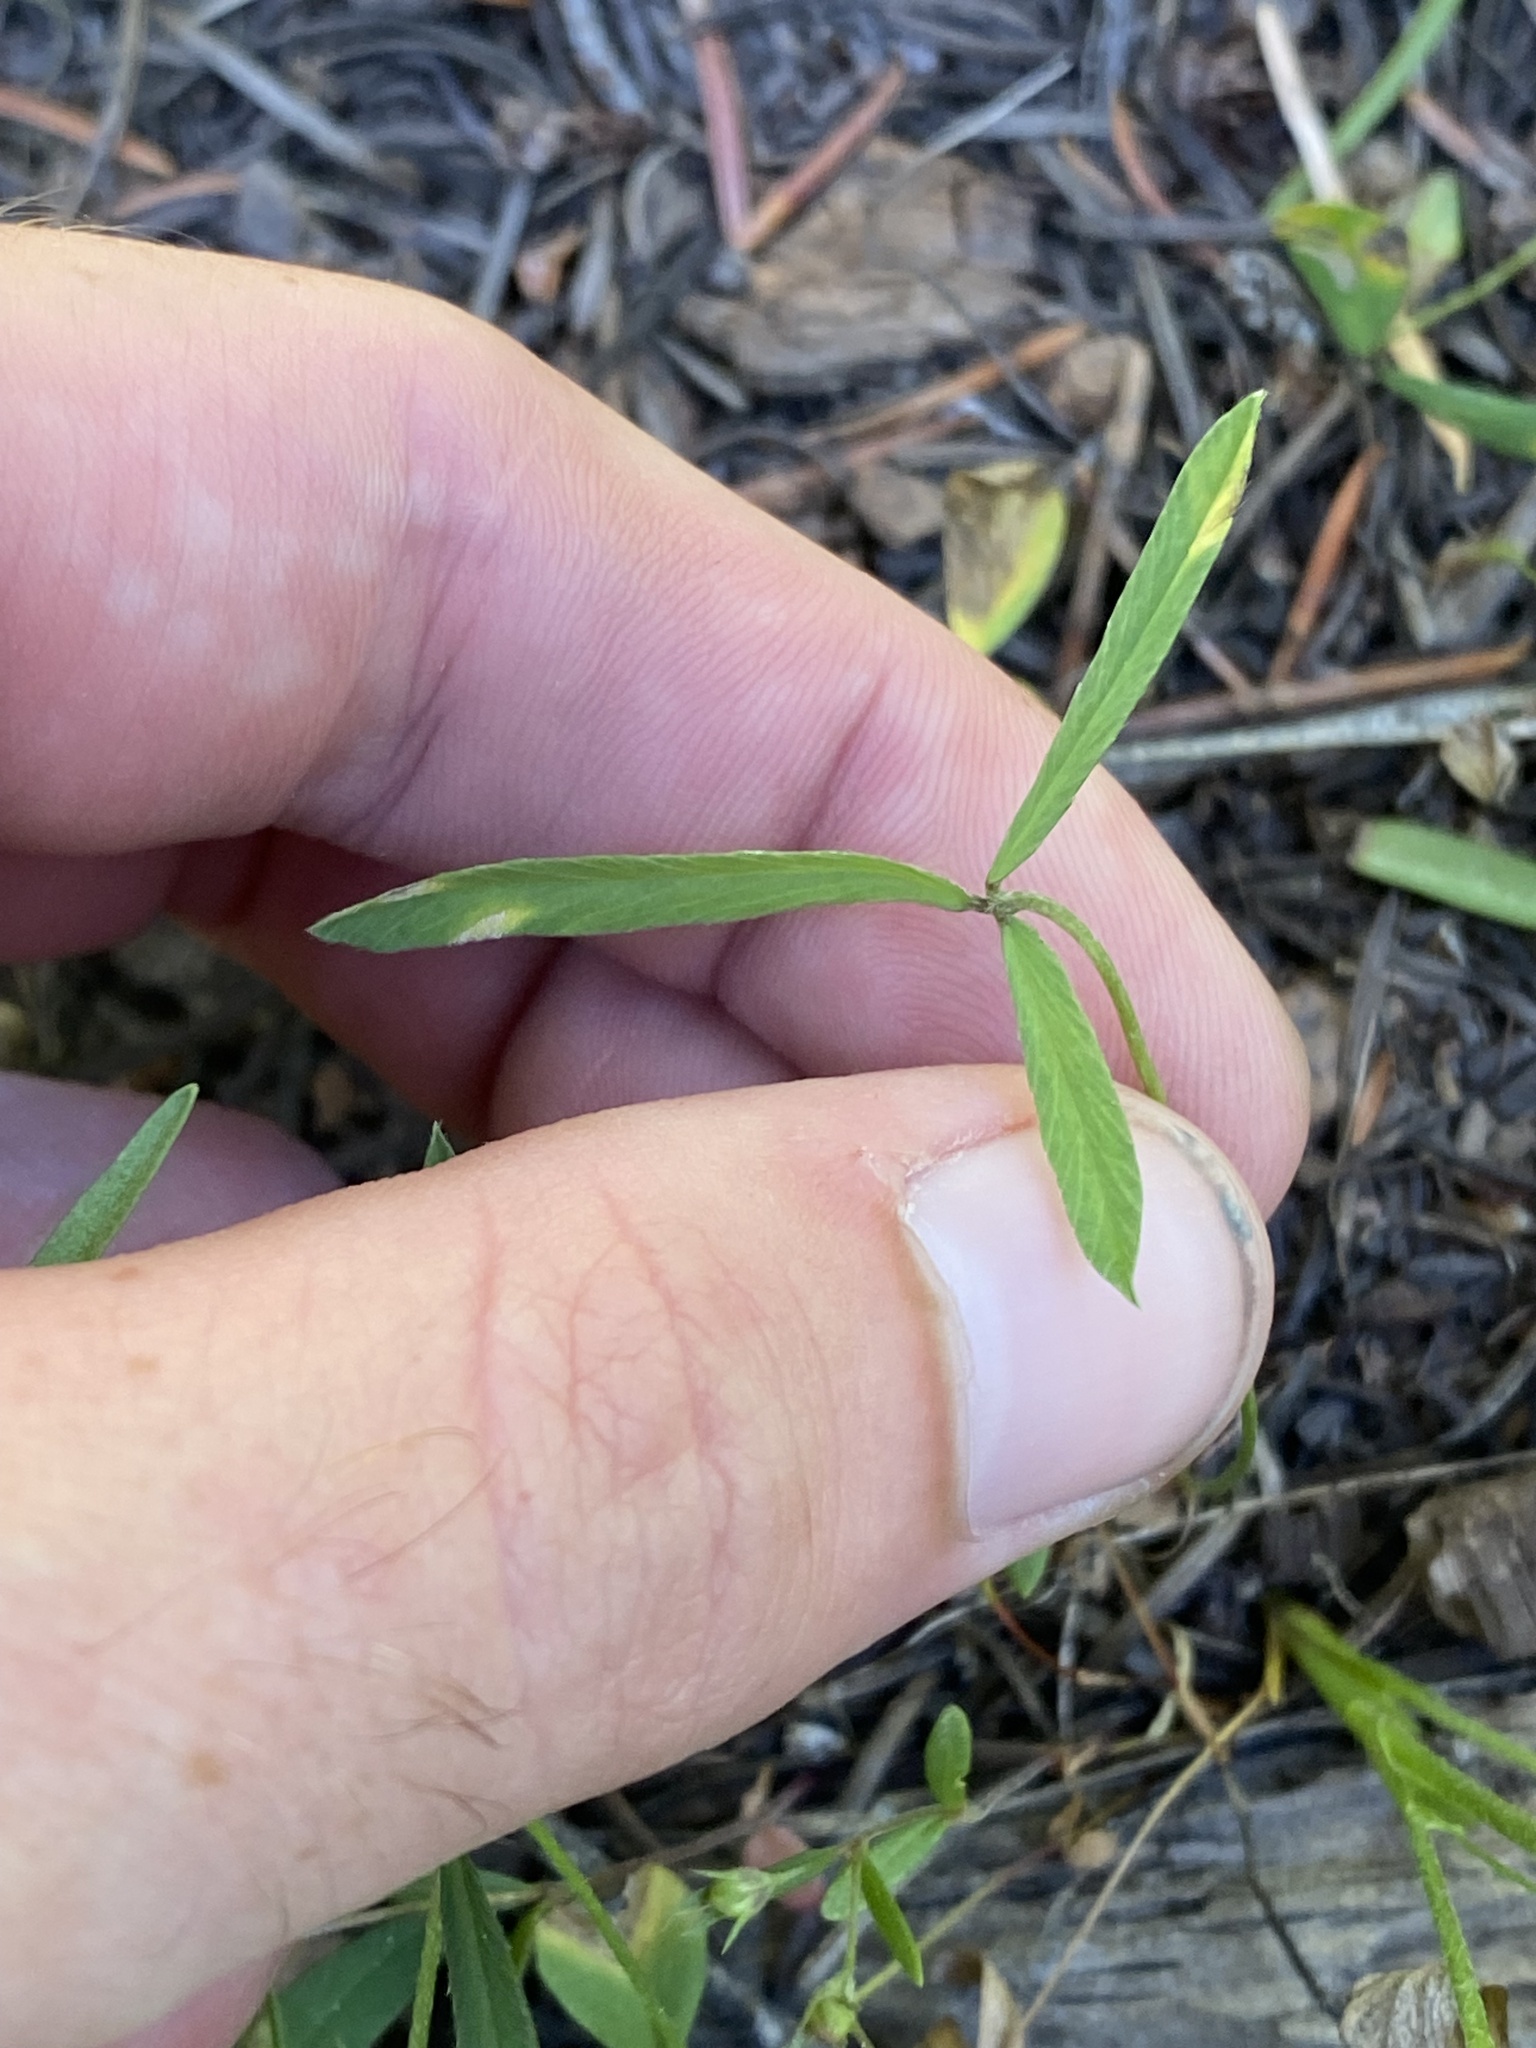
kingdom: Plantae
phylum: Tracheophyta
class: Magnoliopsida
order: Fabales
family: Fabaceae
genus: Trifolium
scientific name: Trifolium longipes
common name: Long-stalk clover
